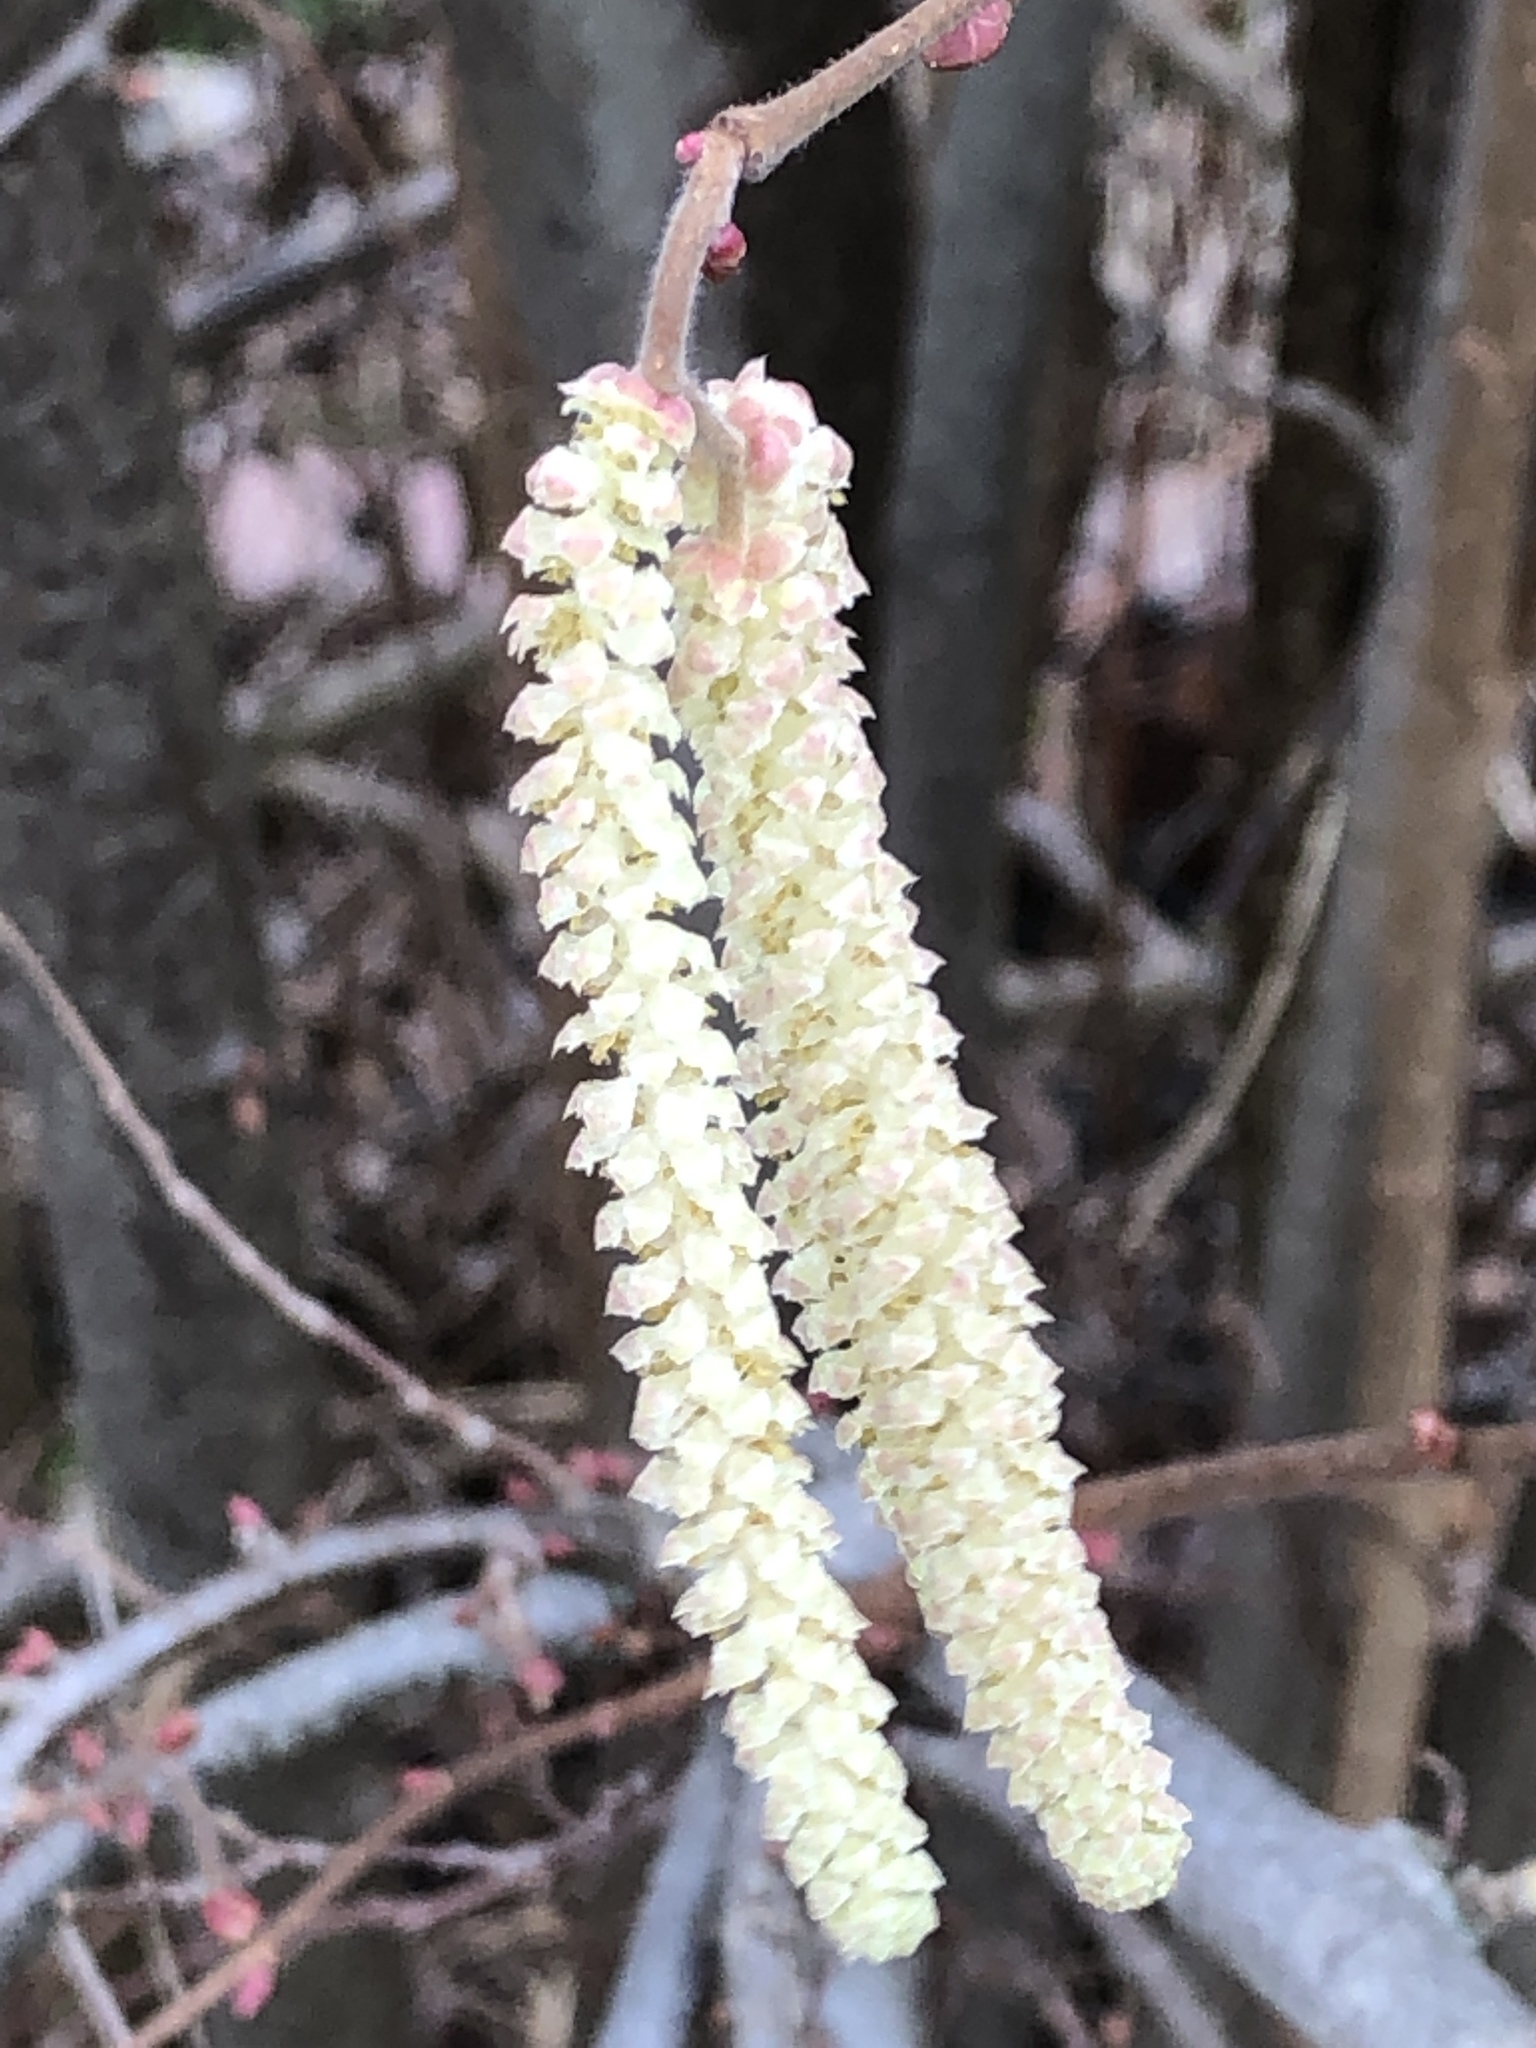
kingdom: Plantae
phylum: Tracheophyta
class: Magnoliopsida
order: Fagales
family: Betulaceae
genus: Corylus
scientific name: Corylus avellana
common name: European hazel
